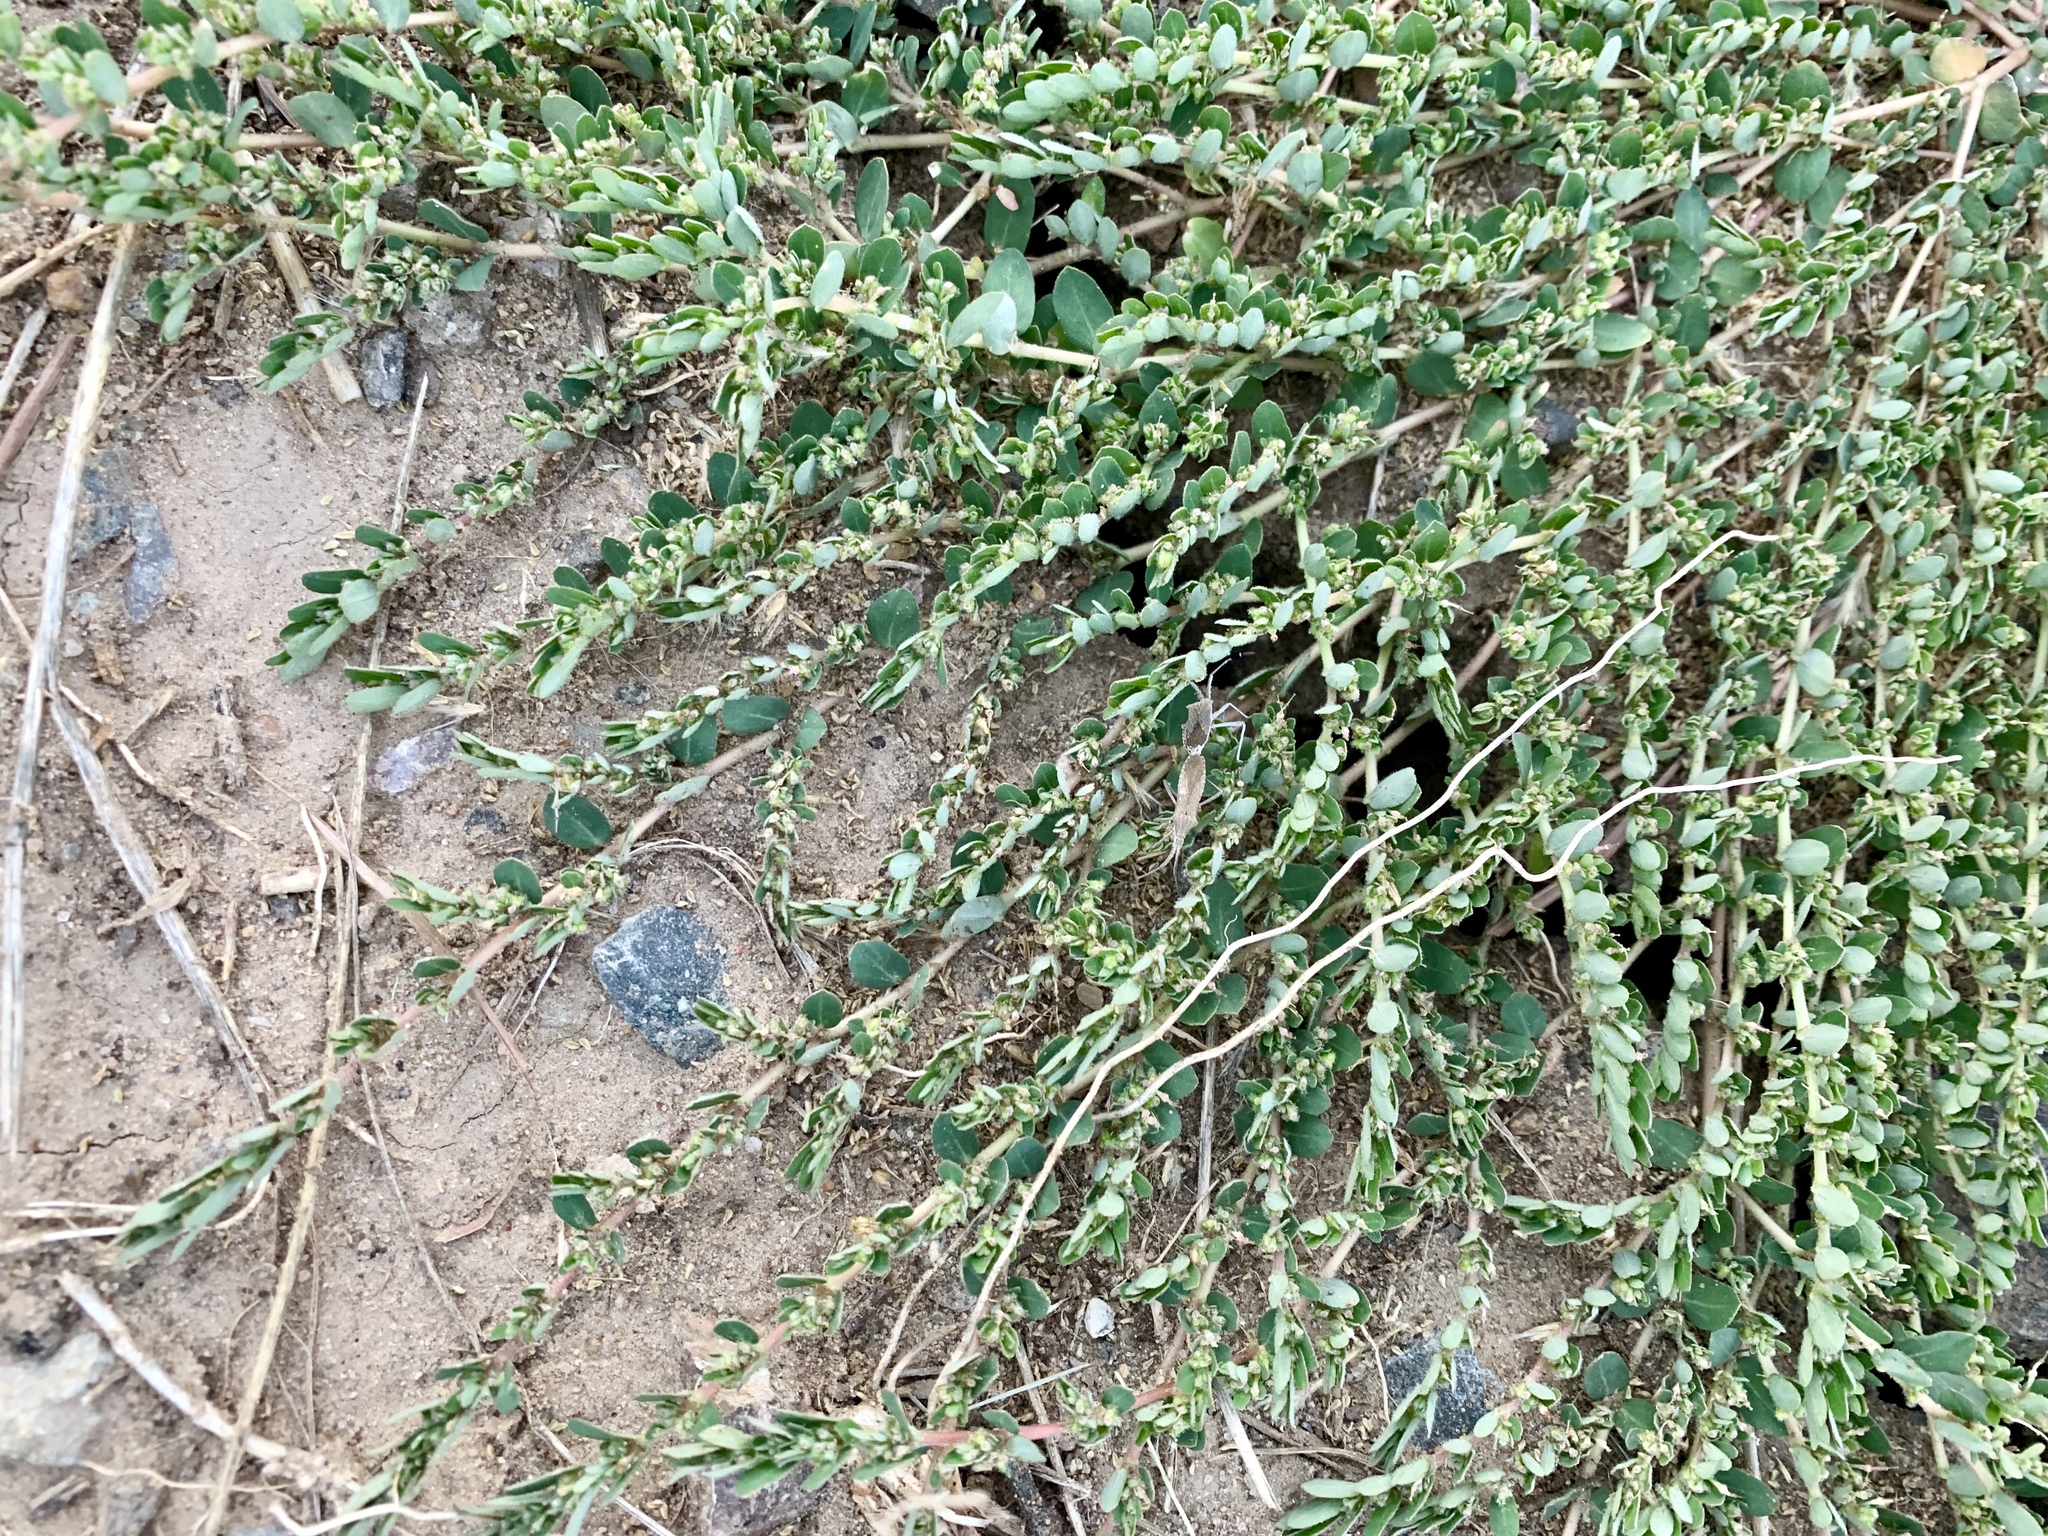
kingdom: Plantae
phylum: Tracheophyta
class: Magnoliopsida
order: Malpighiales
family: Euphorbiaceae
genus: Euphorbia
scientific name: Euphorbia prostrata
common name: Prostrate sandmat
